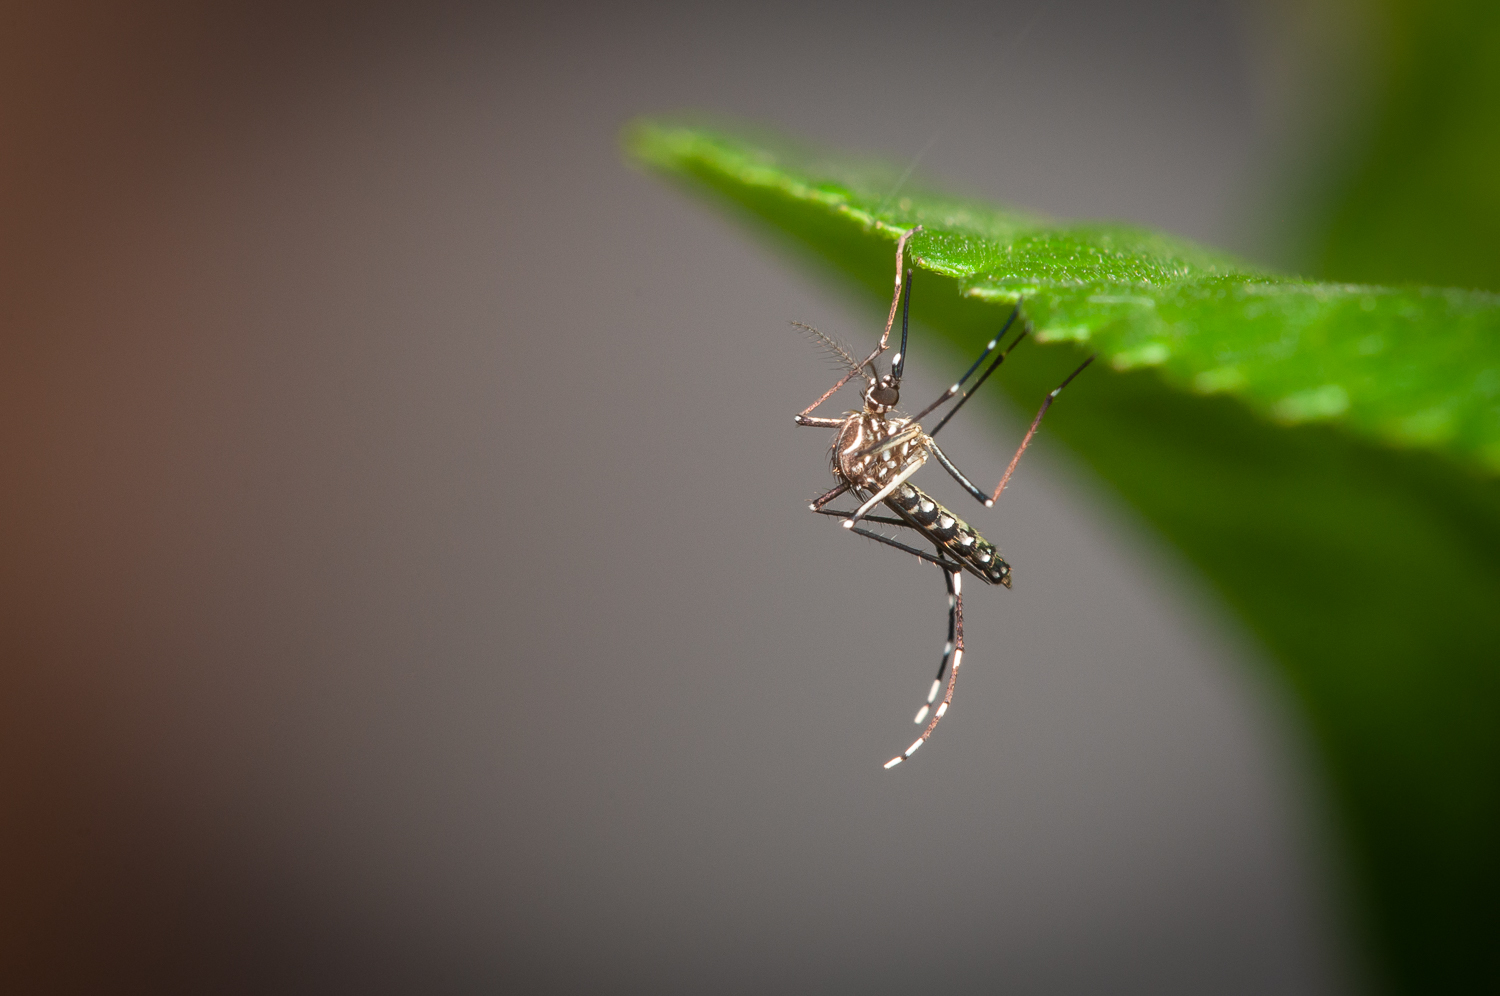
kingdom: Animalia
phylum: Arthropoda
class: Insecta
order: Diptera
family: Culicidae
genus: Aedes
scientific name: Aedes aegypti
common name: Yellow fever mosquito
